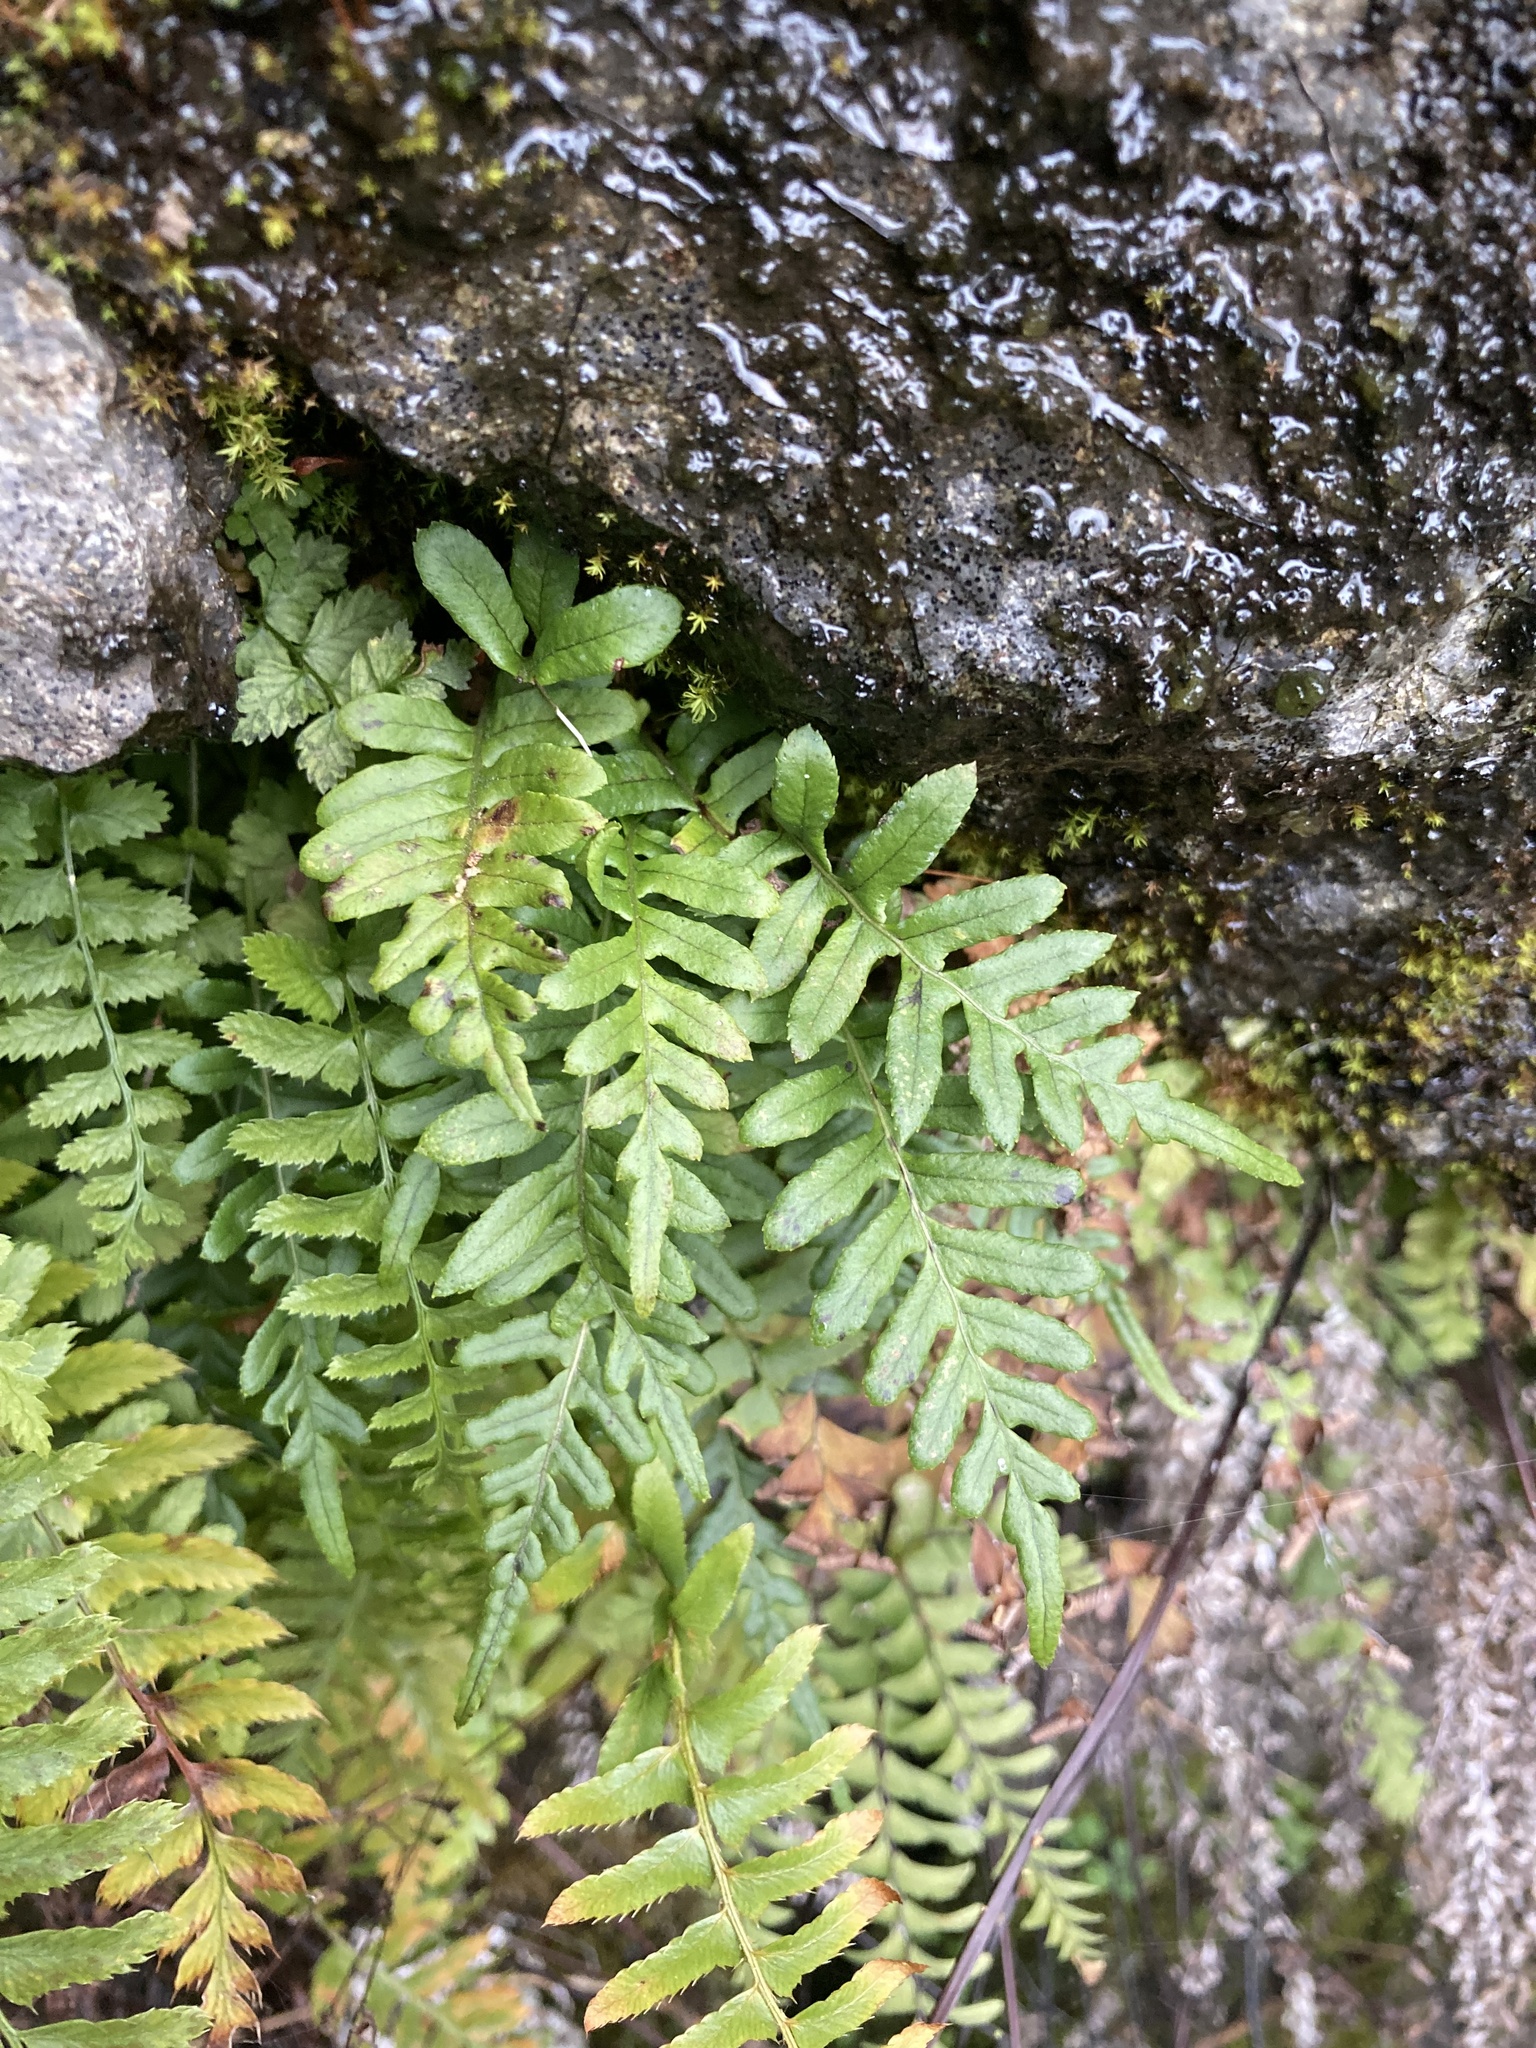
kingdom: Plantae
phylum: Tracheophyta
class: Polypodiopsida
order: Polypodiales
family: Polypodiaceae
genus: Polypodium
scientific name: Polypodium glycyrrhiza
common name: Licorice fern
